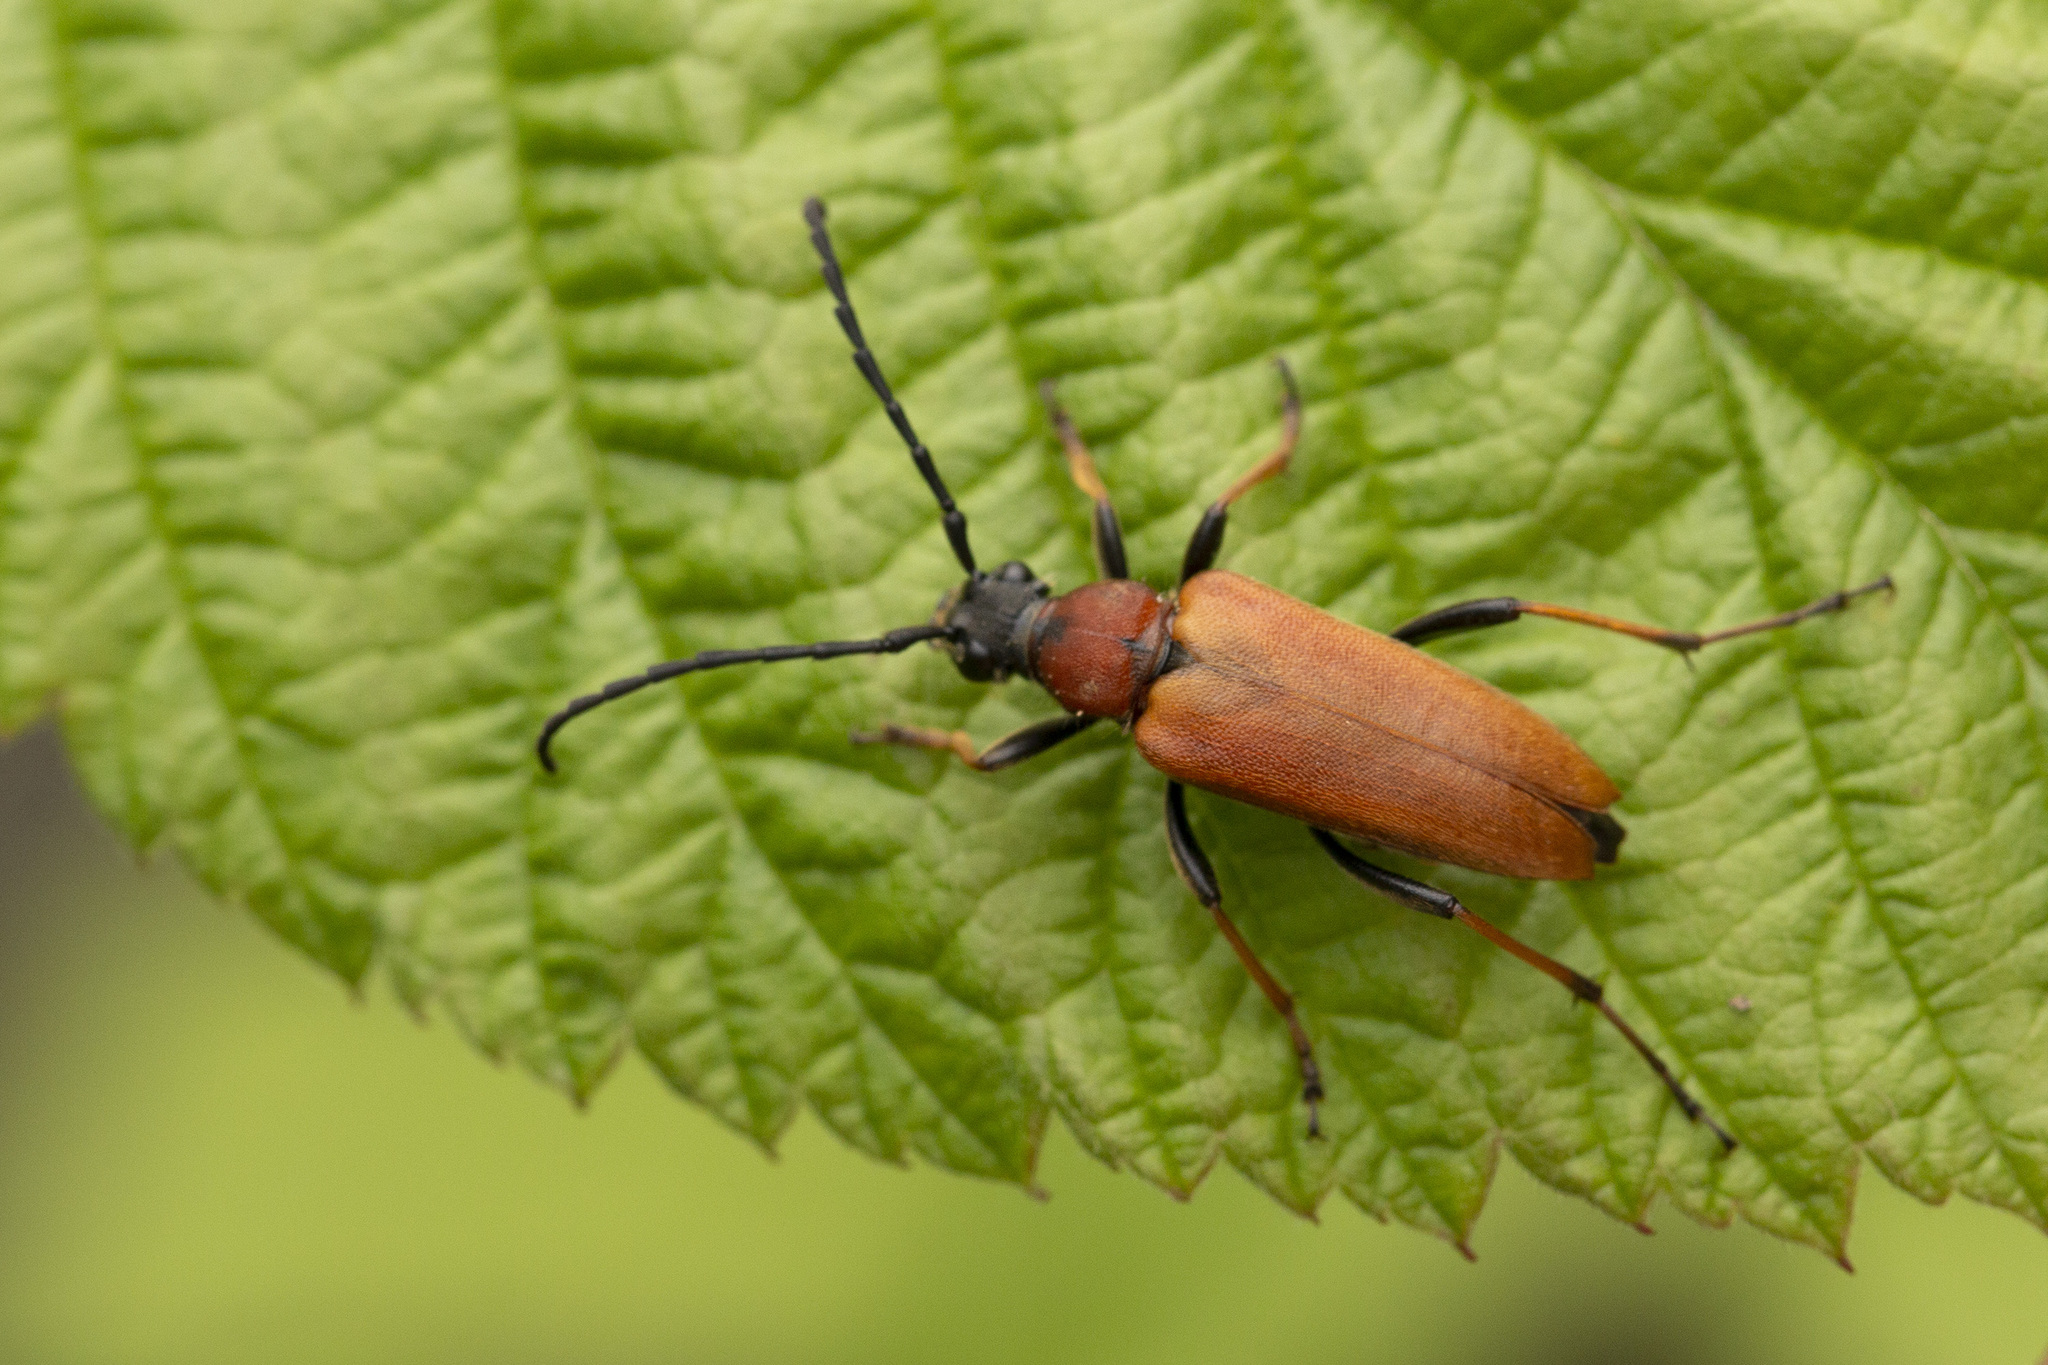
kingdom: Animalia
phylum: Arthropoda
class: Insecta
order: Coleoptera
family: Cerambycidae
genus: Stictoleptura
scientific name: Stictoleptura rubra
